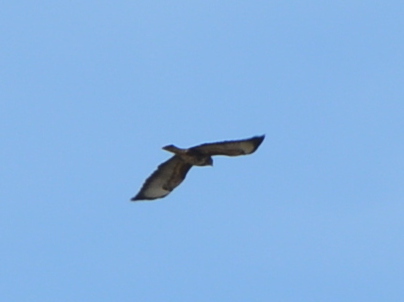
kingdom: Animalia
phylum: Chordata
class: Aves
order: Accipitriformes
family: Accipitridae
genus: Buteo
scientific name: Buteo buteo
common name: Common buzzard
